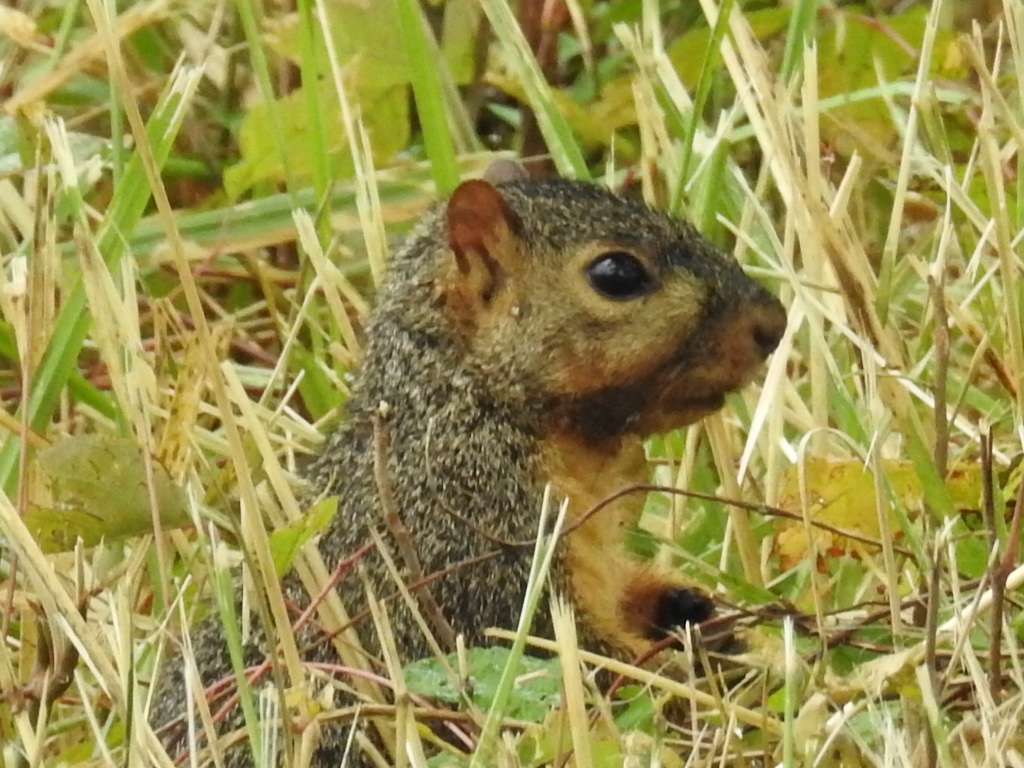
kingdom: Animalia
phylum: Chordata
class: Mammalia
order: Rodentia
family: Sciuridae
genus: Sciurus
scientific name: Sciurus niger
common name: Fox squirrel
